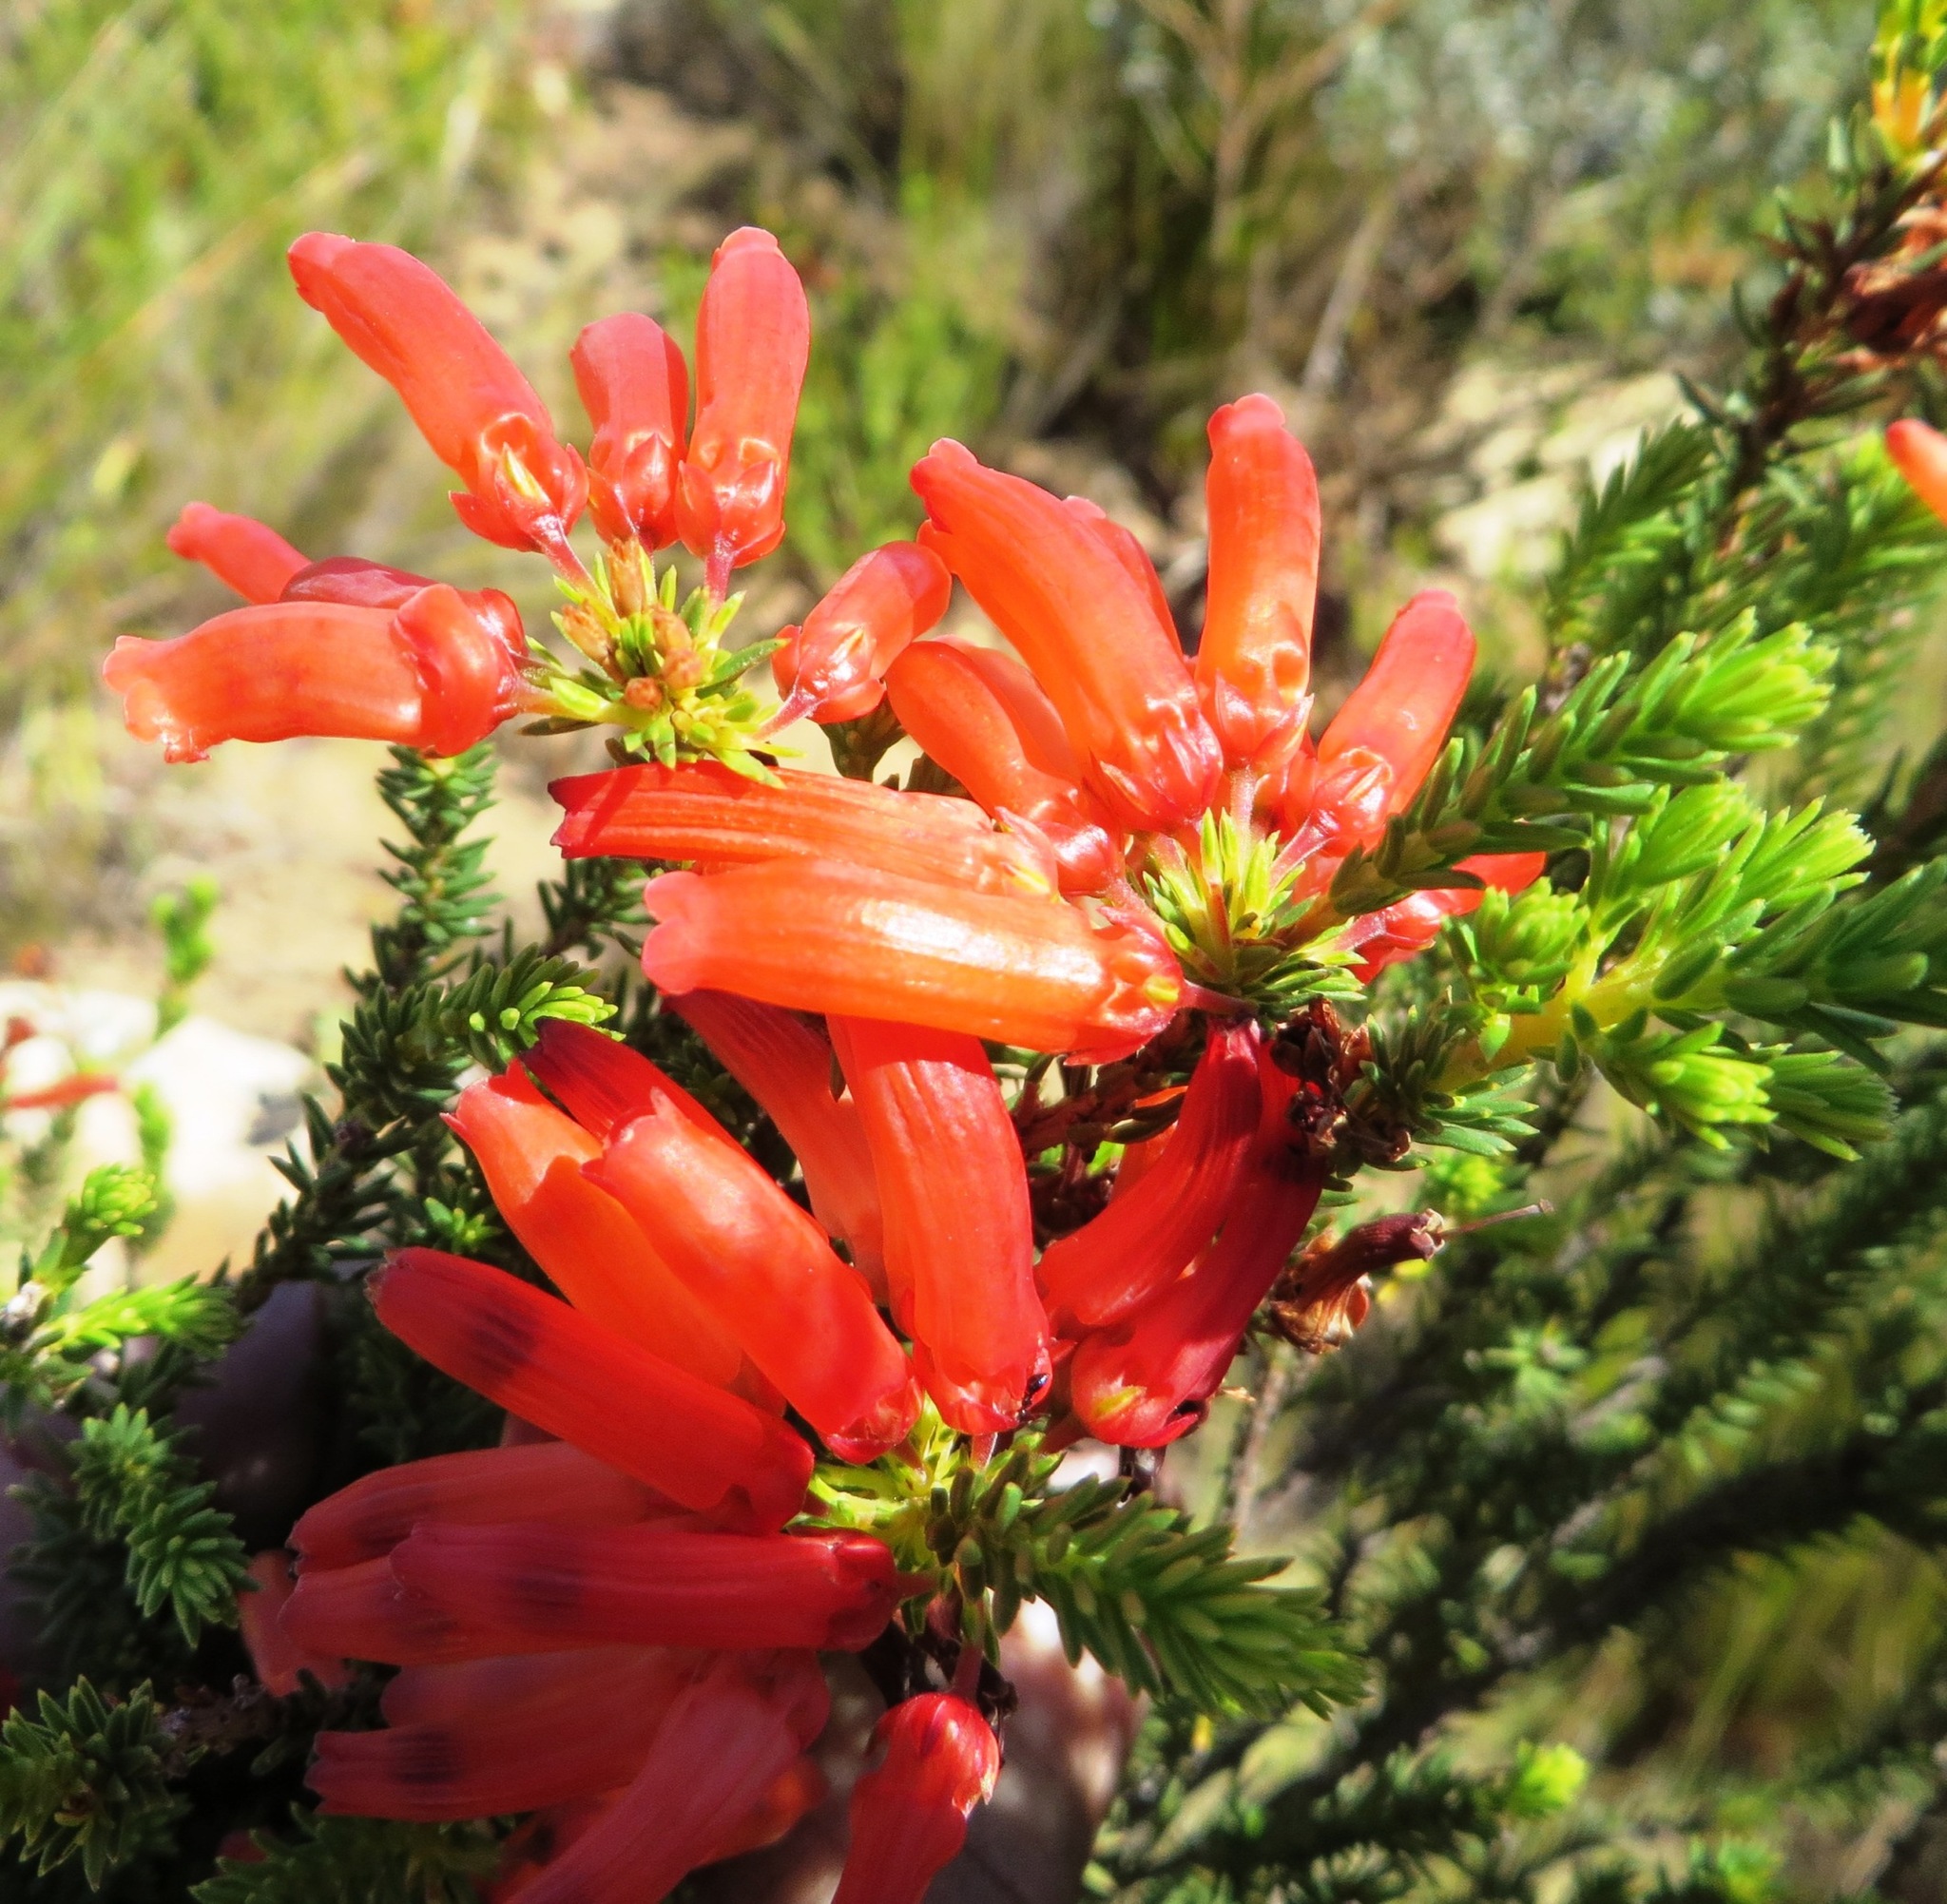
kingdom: Plantae
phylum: Tracheophyta
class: Magnoliopsida
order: Ericales
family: Ericaceae
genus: Erica
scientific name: Erica mammosa
